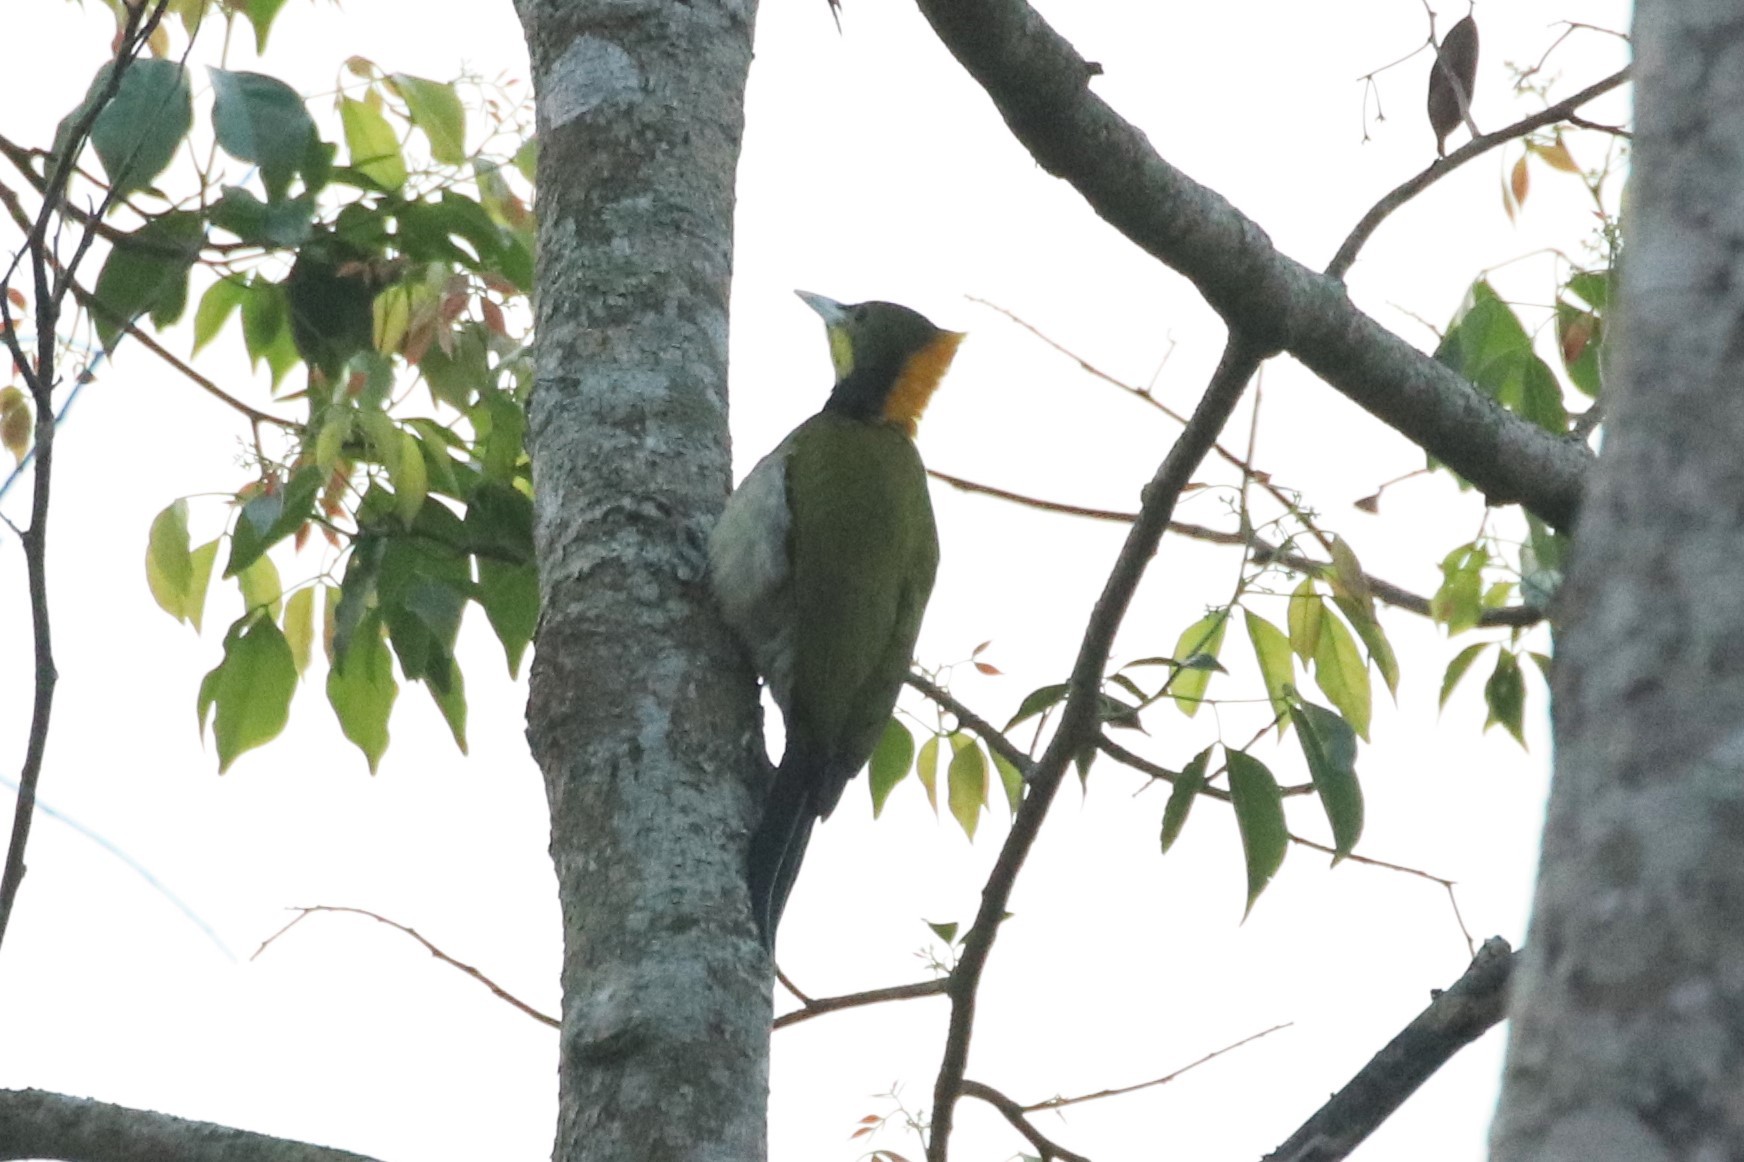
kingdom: Animalia
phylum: Chordata
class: Aves
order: Piciformes
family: Picidae
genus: Chrysophlegma
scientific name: Chrysophlegma flavinucha
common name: Greater yellownape
